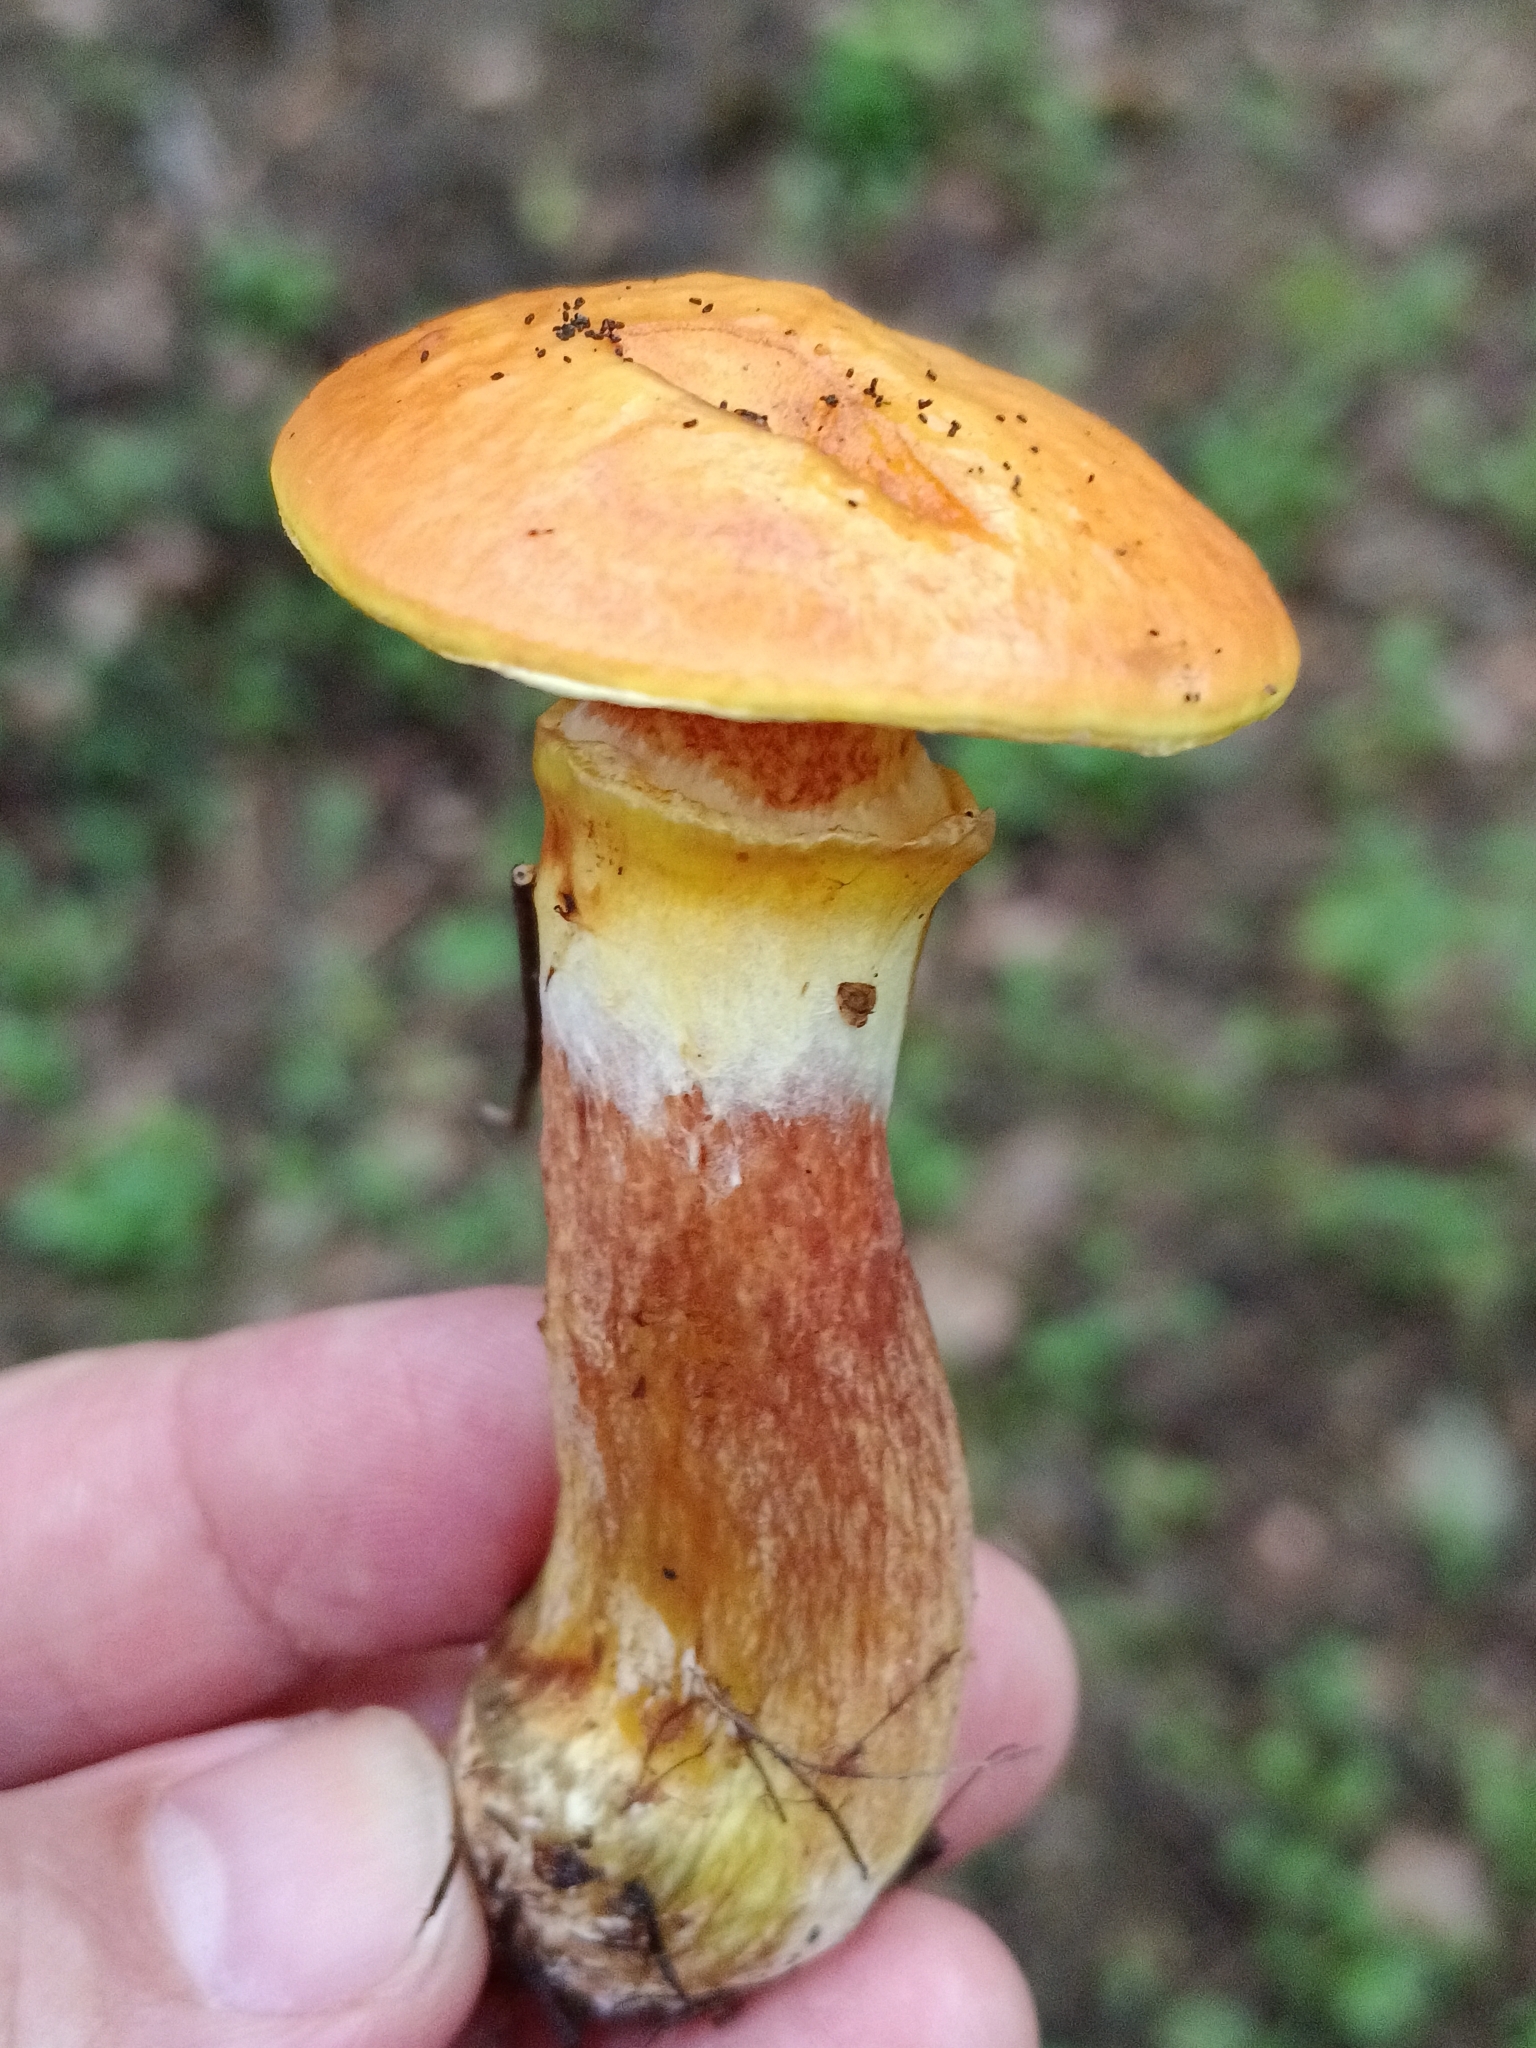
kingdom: Fungi
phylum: Basidiomycota
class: Agaricomycetes
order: Boletales
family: Suillaceae
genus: Suillus
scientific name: Suillus grevillei
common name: Larch bolete
